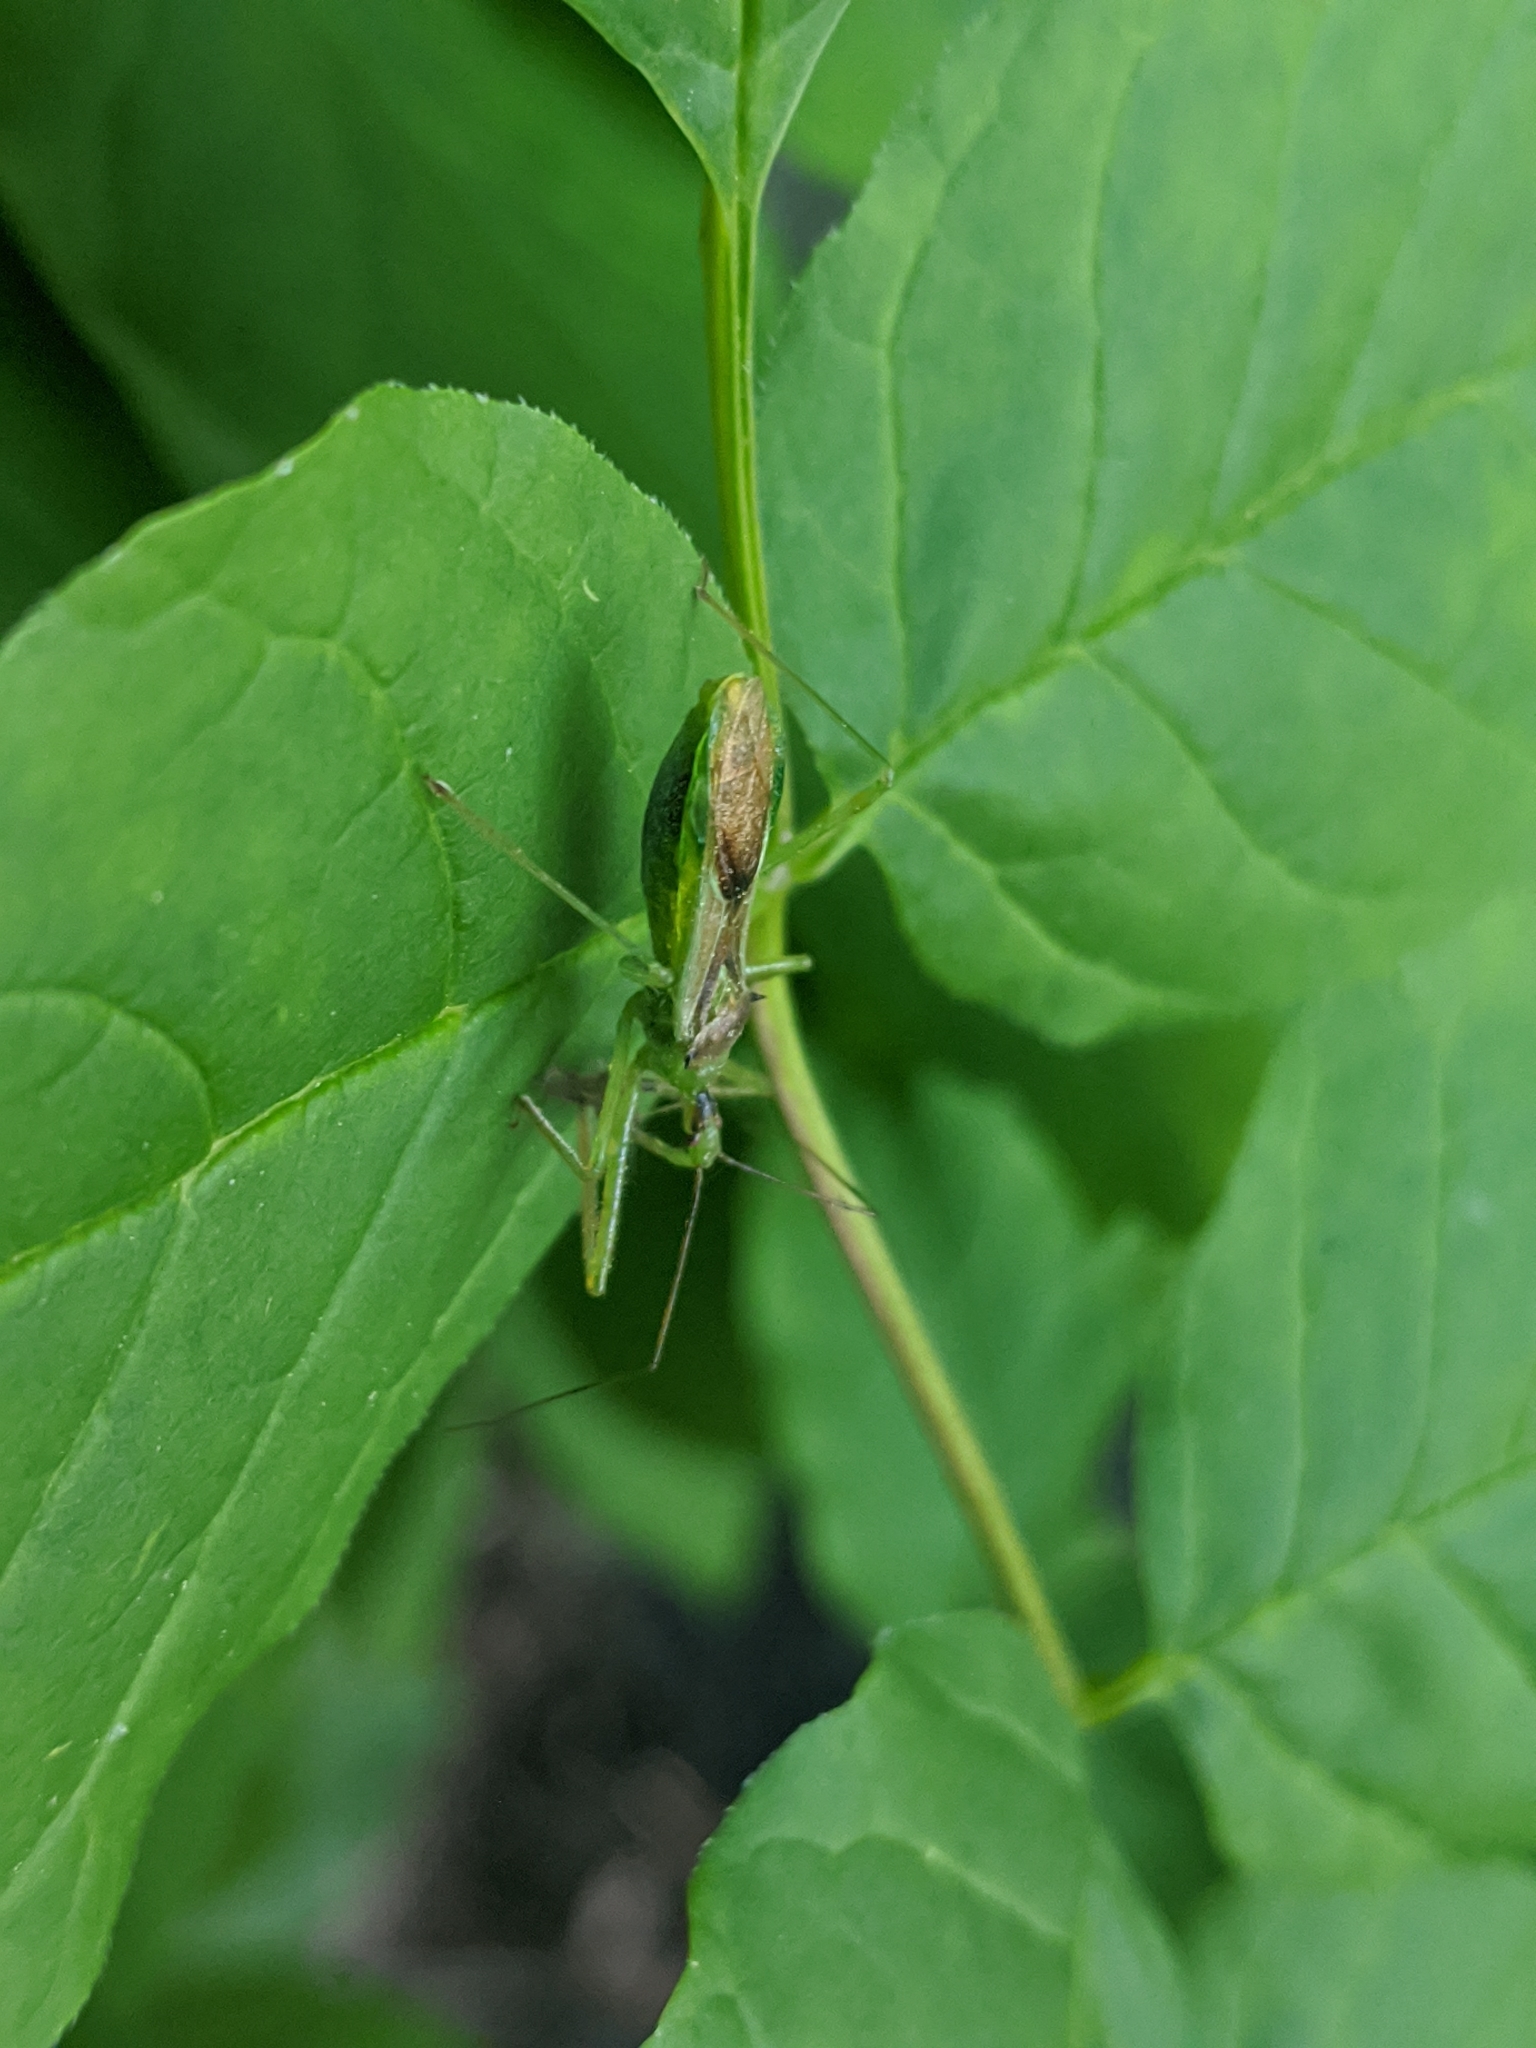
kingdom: Animalia
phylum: Arthropoda
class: Insecta
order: Hemiptera
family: Reduviidae
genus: Zelus
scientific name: Zelus luridus
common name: Pale green assassin bug
